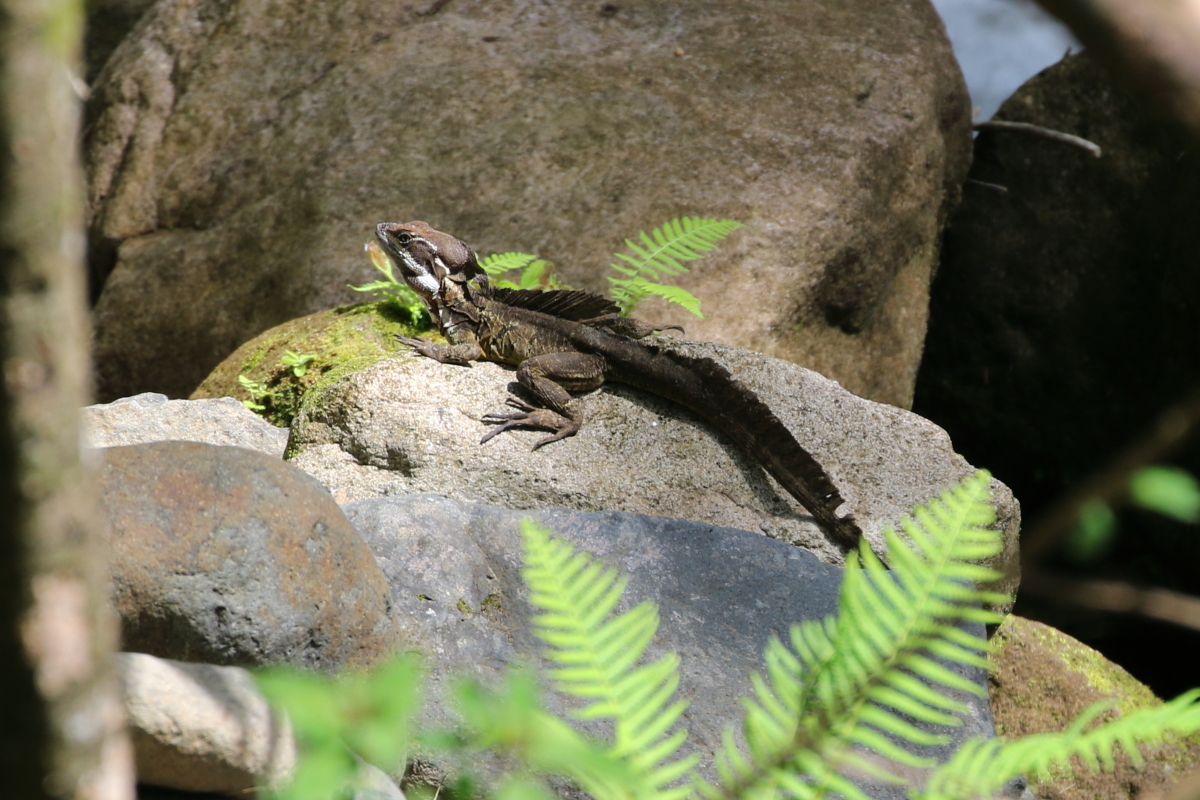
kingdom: Animalia
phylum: Chordata
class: Squamata
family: Corytophanidae
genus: Basiliscus
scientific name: Basiliscus basiliscus
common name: Common basilisk
